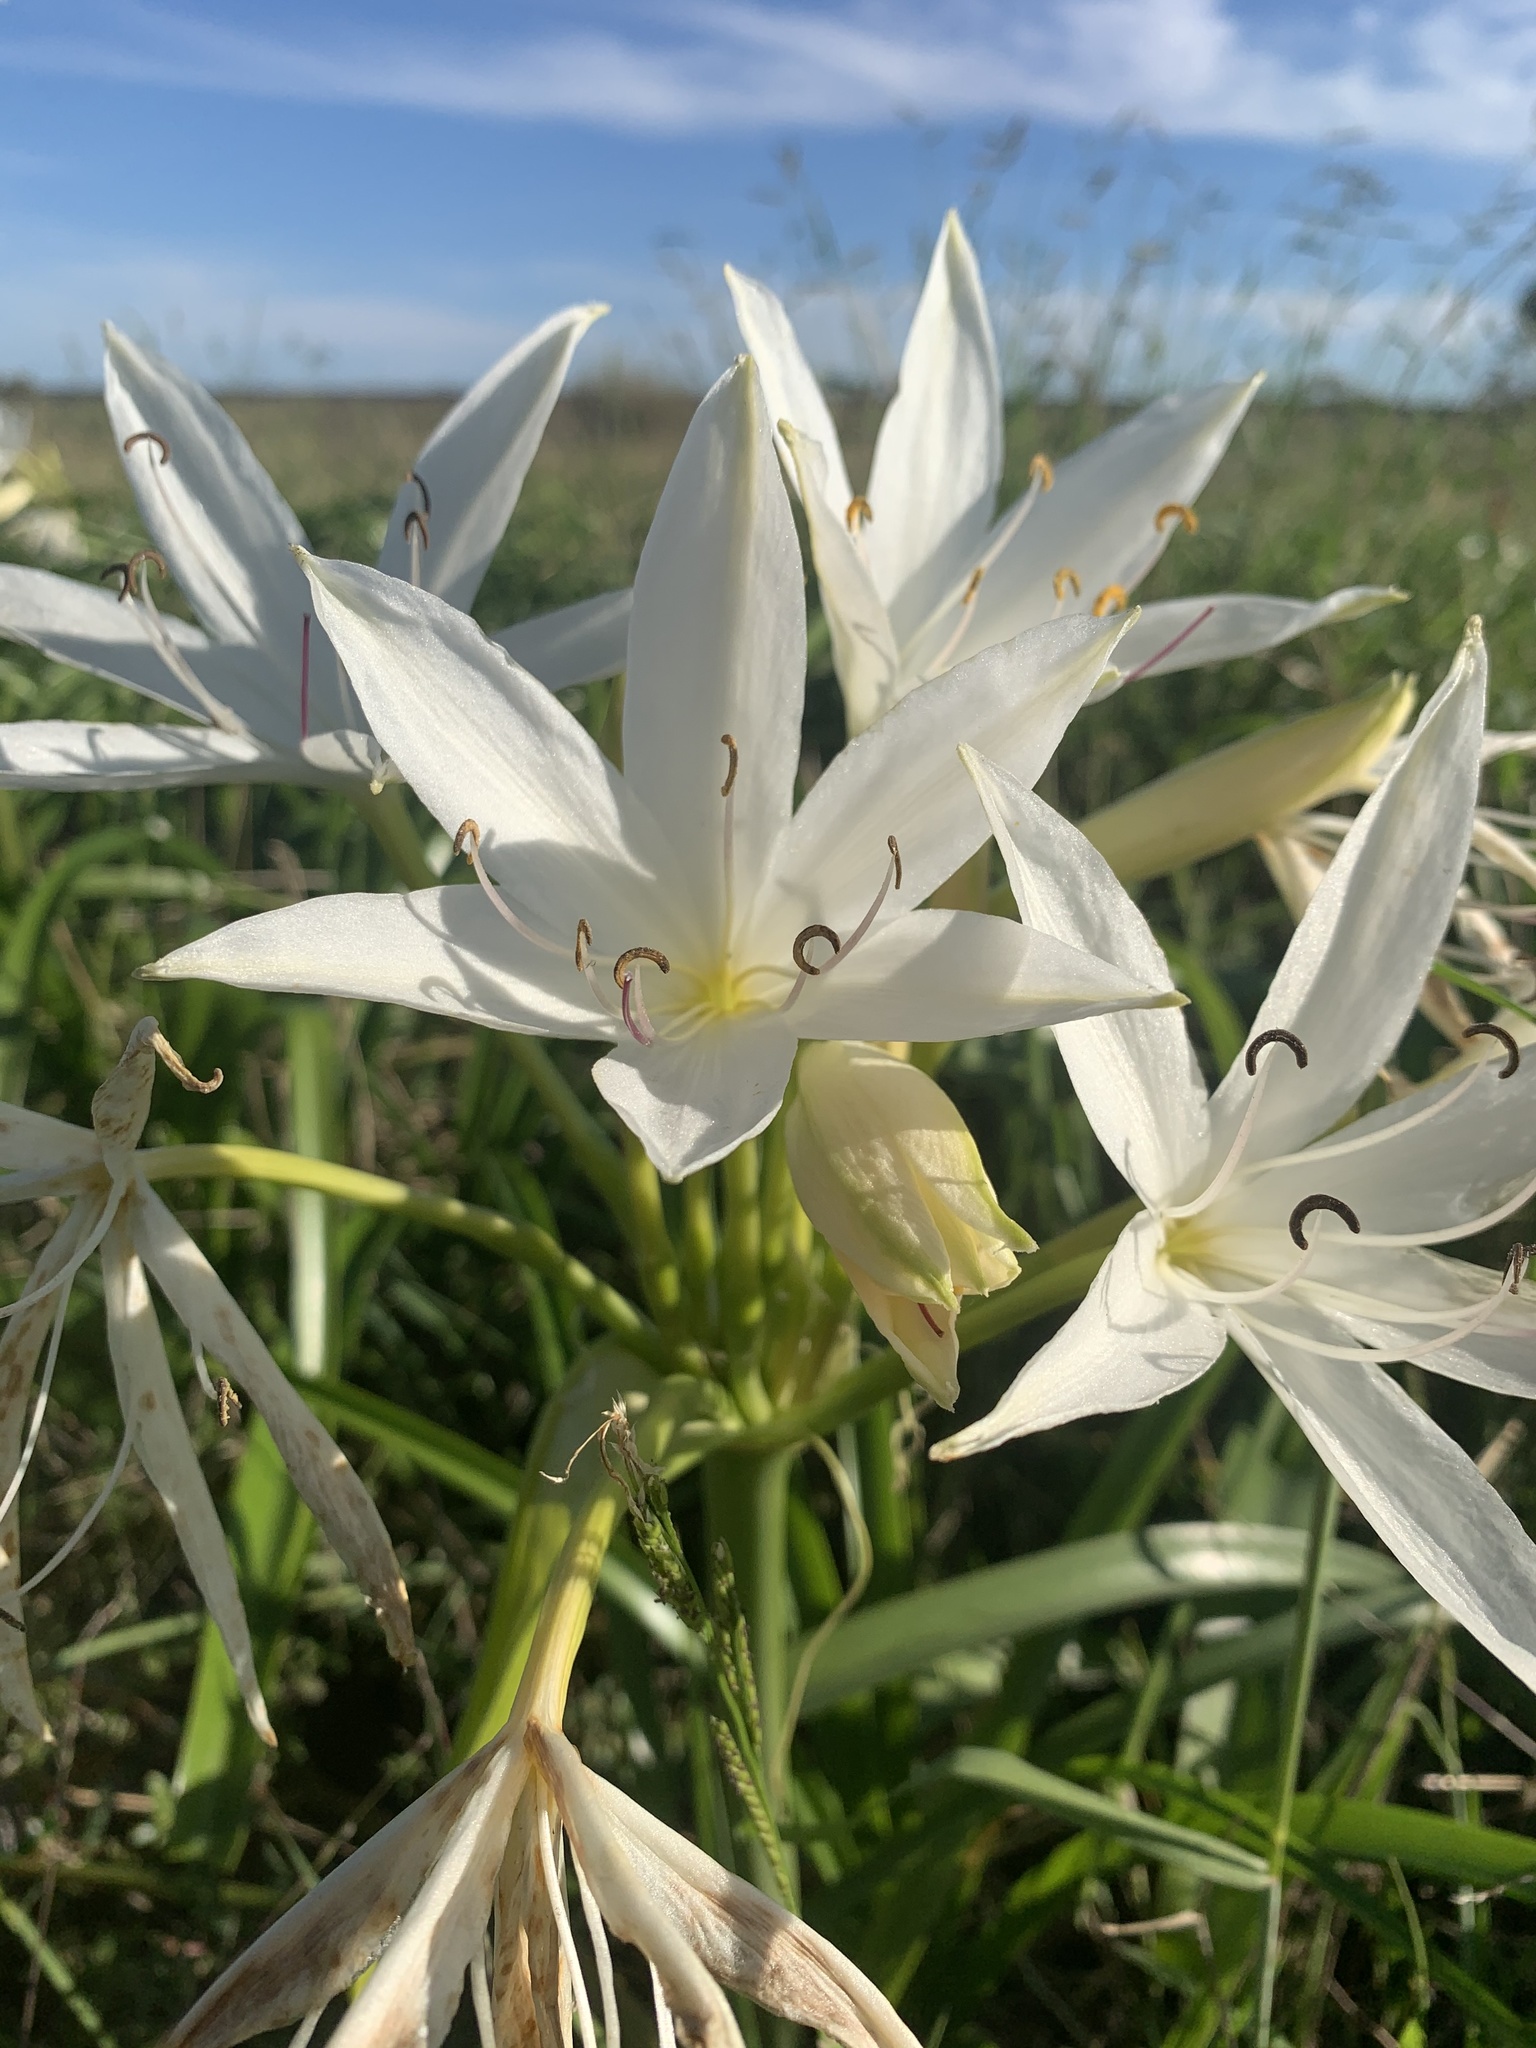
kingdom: Plantae
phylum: Tracheophyta
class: Liliopsida
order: Asparagales
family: Amaryllidaceae
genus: Crinum
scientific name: Crinum flaccidum
